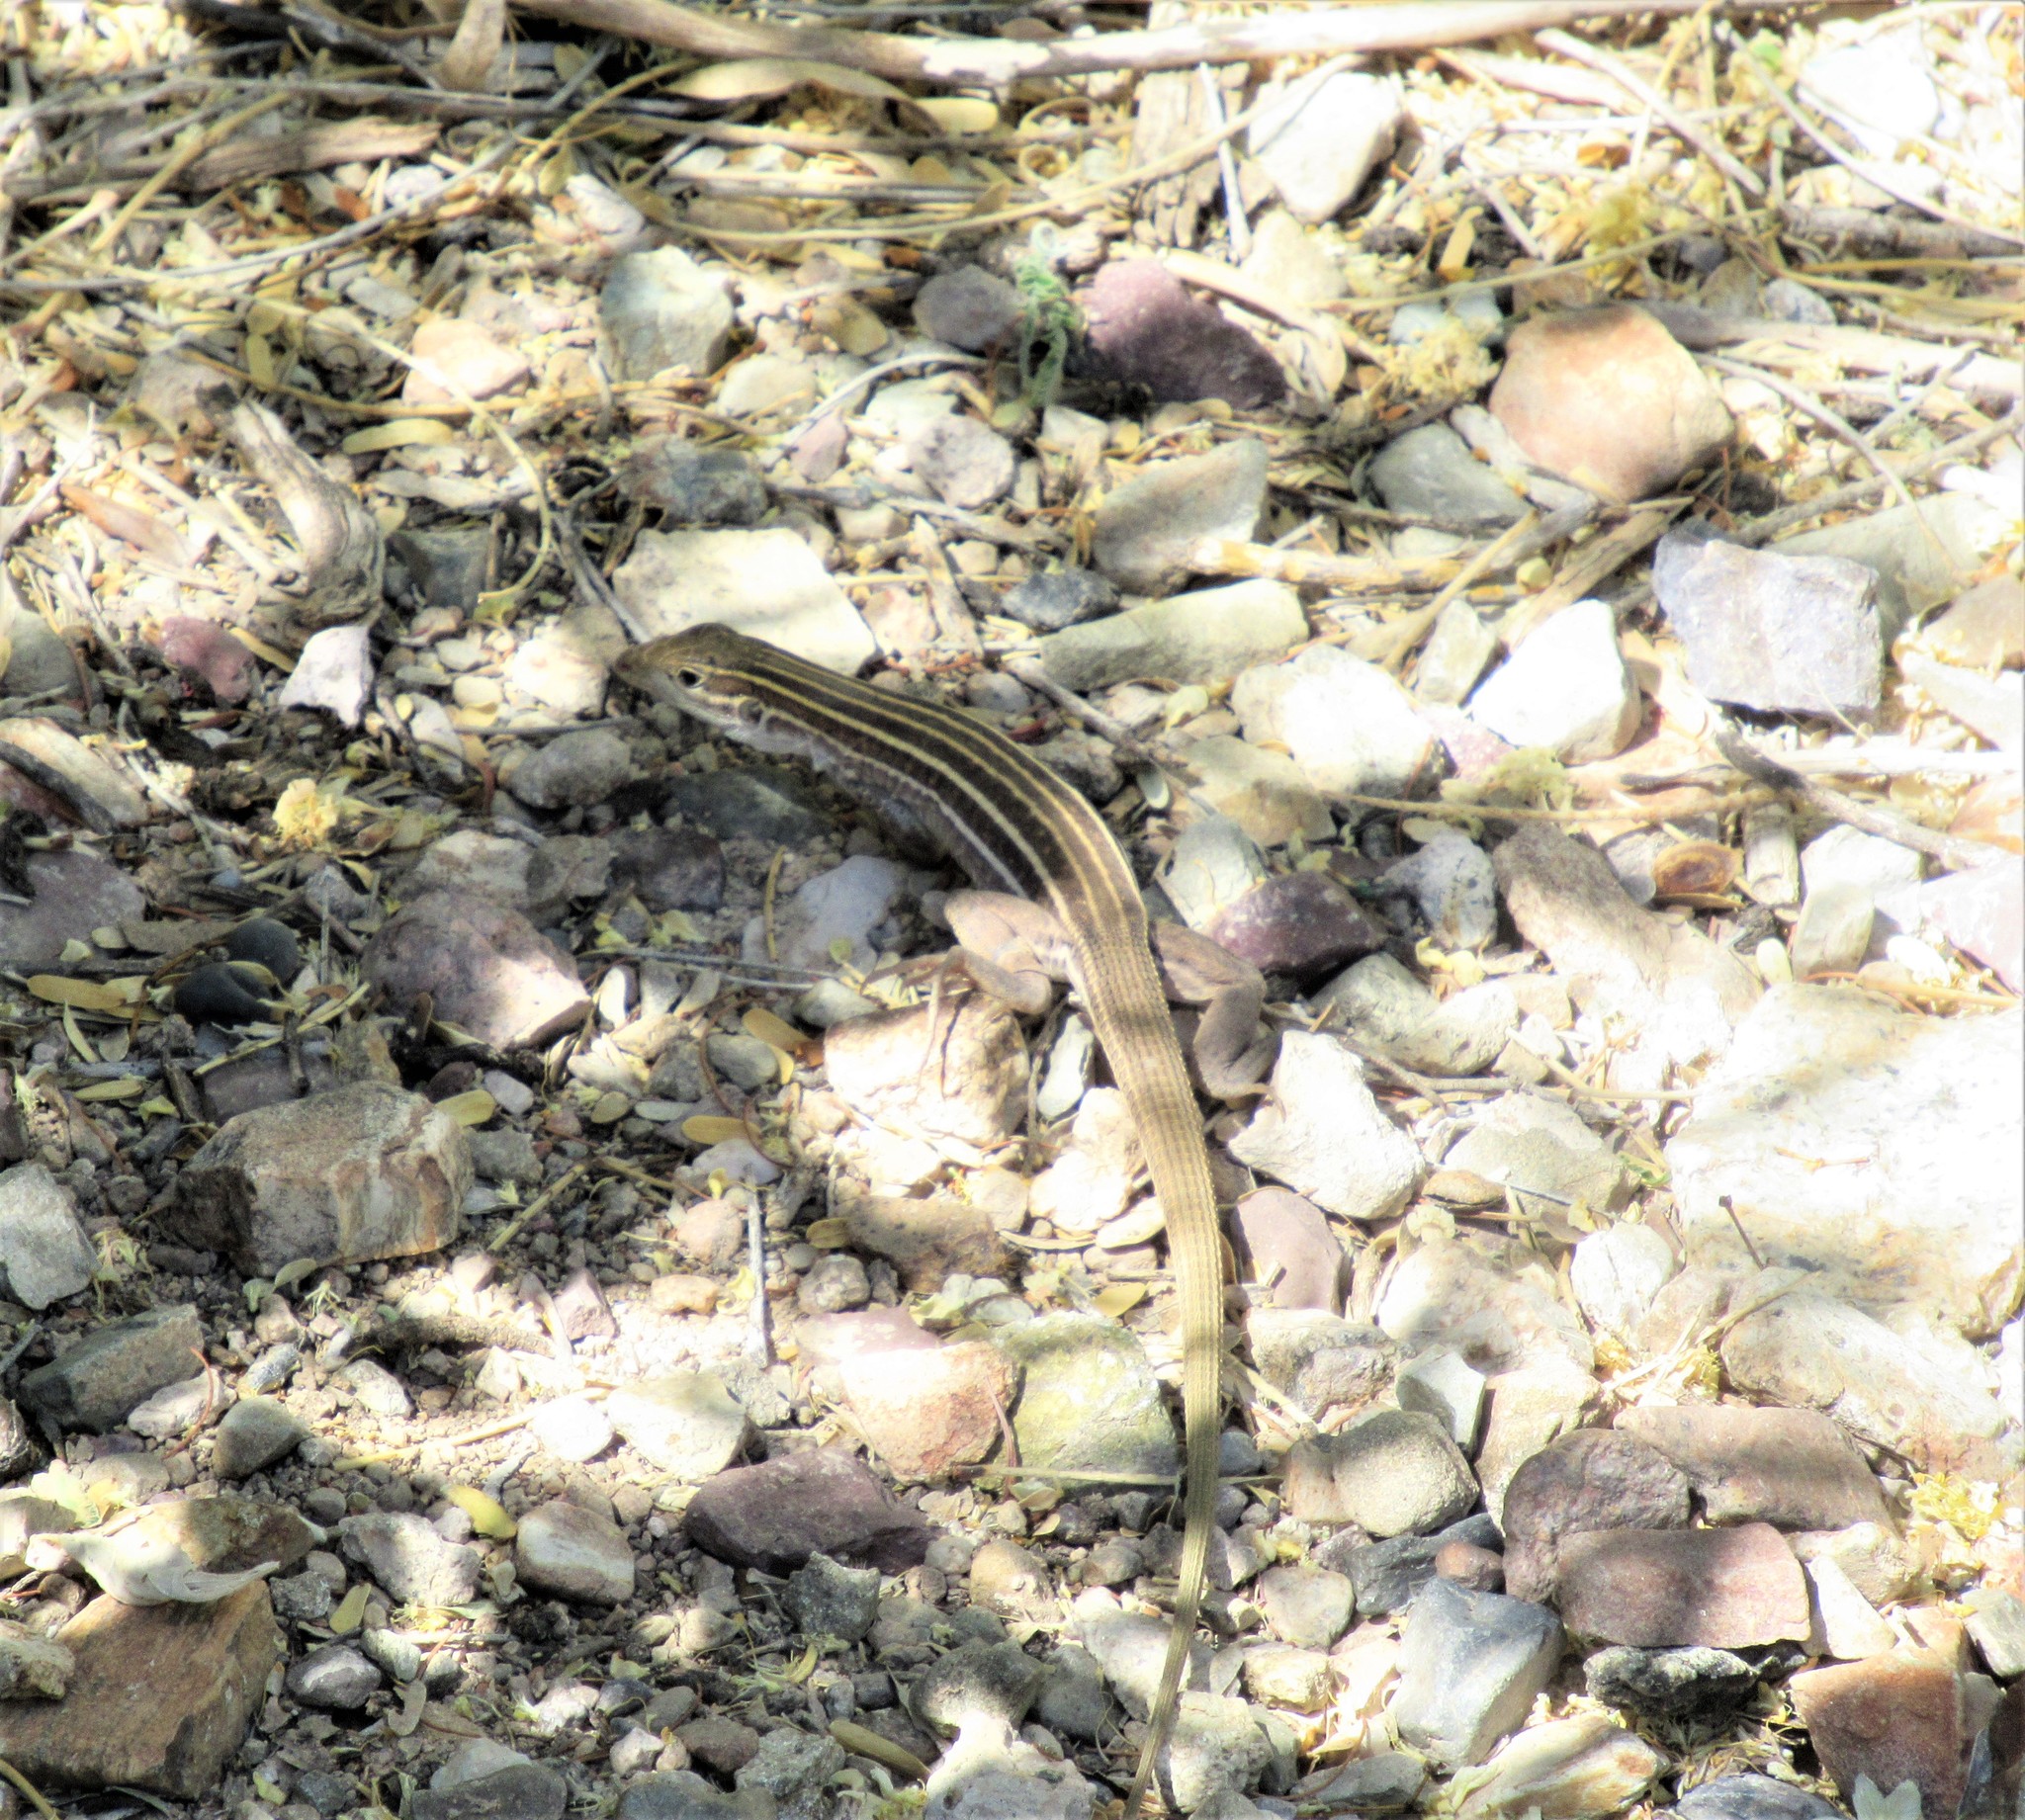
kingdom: Animalia
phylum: Chordata
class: Squamata
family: Teiidae
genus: Aspidoscelis
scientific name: Aspidoscelis sonorae
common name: Sonoran spotted whiptail
